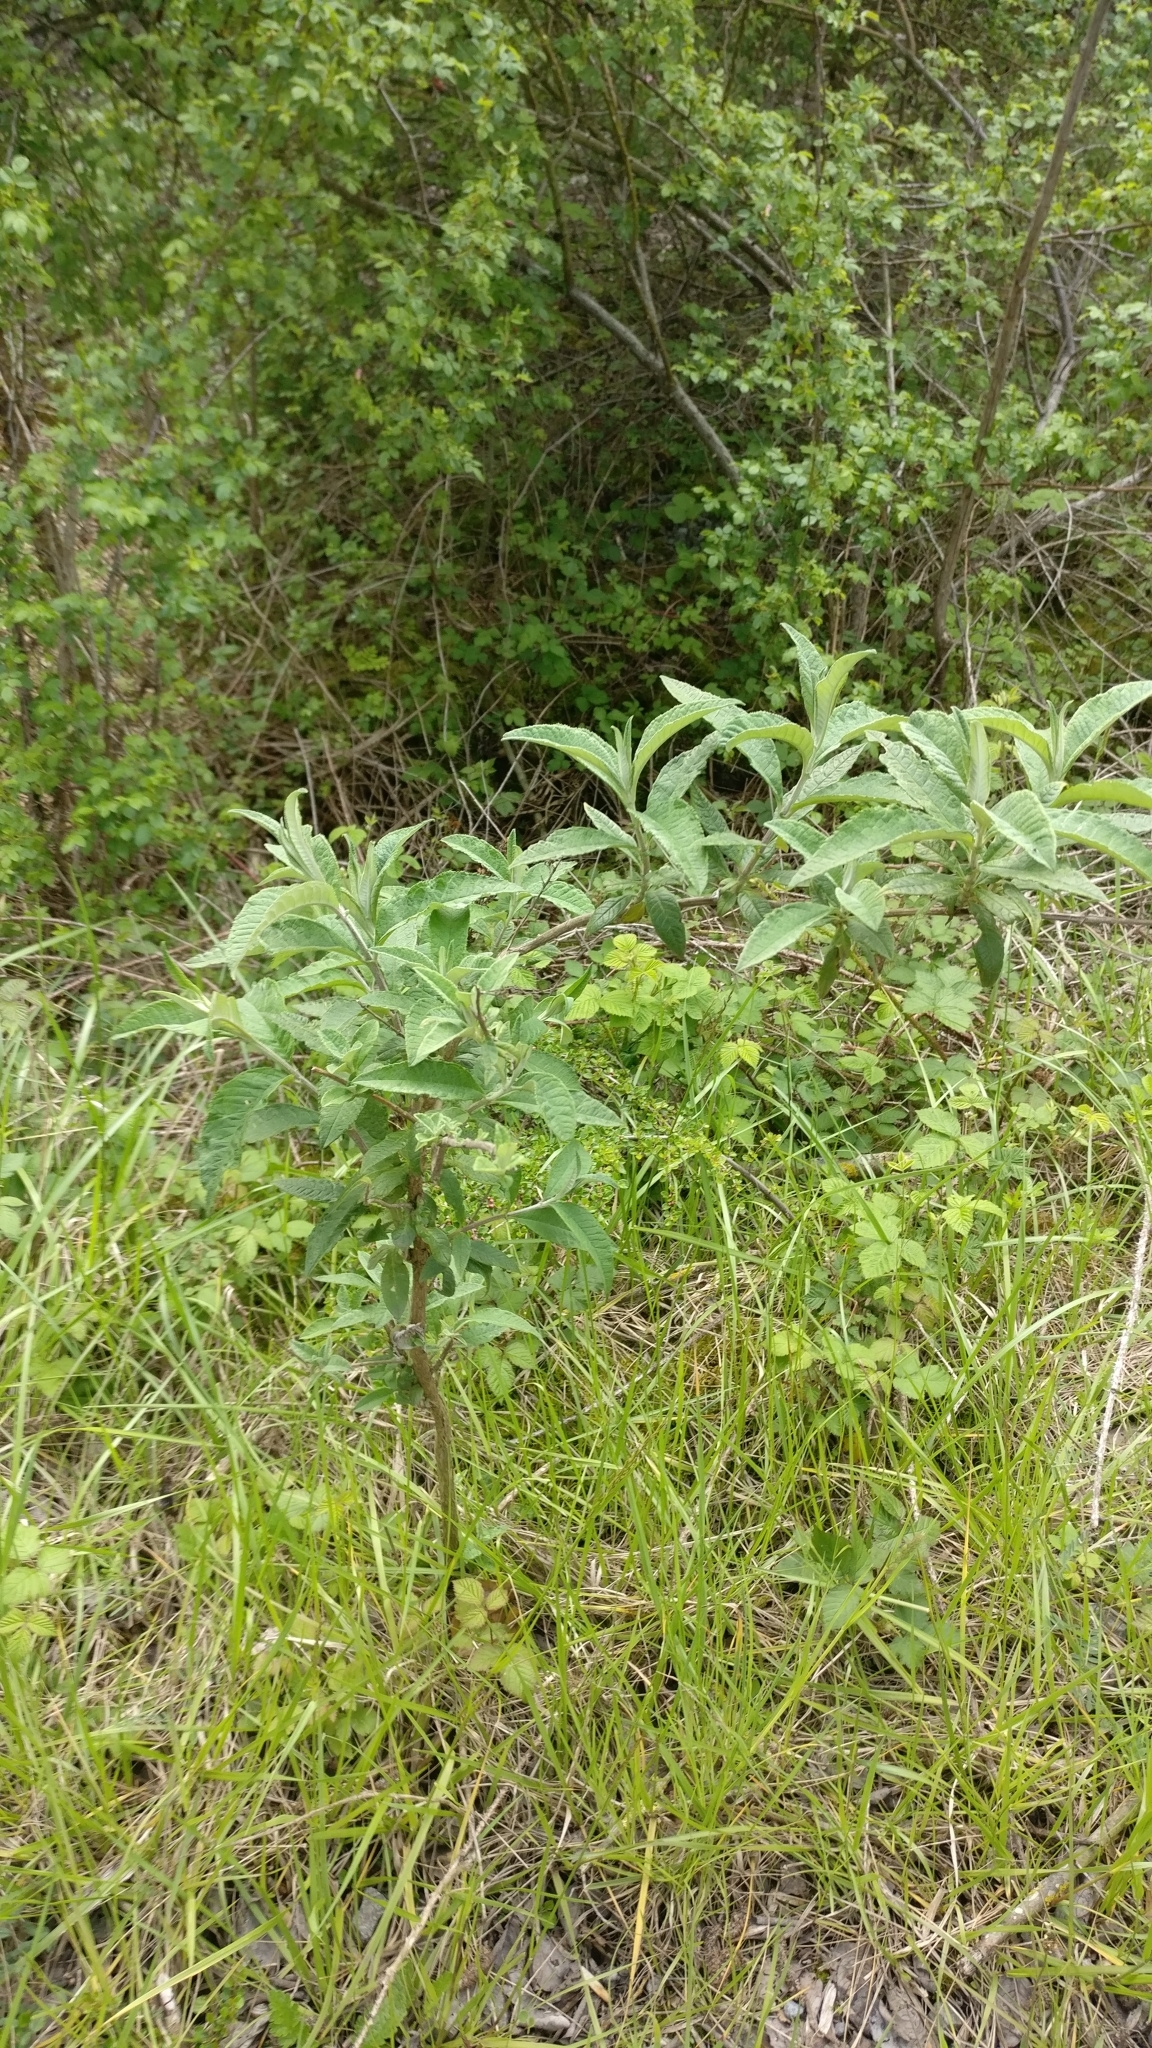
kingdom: Plantae
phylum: Tracheophyta
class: Magnoliopsida
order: Lamiales
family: Scrophulariaceae
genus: Buddleja
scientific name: Buddleja davidii
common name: Butterfly-bush
